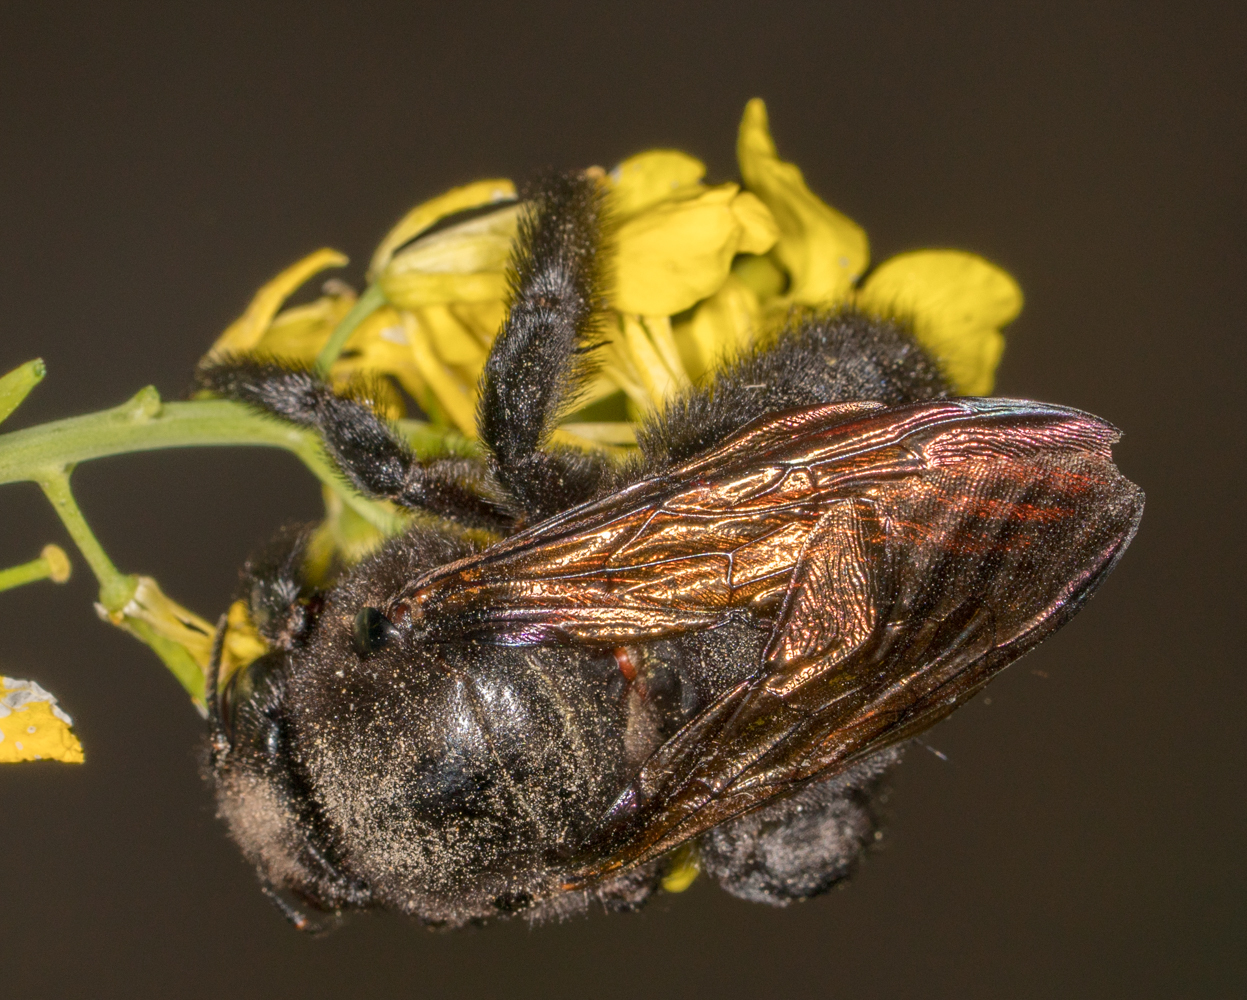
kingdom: Animalia
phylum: Arthropoda
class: Insecta
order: Hymenoptera
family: Apidae
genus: Xylocopa
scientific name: Xylocopa sonorina
